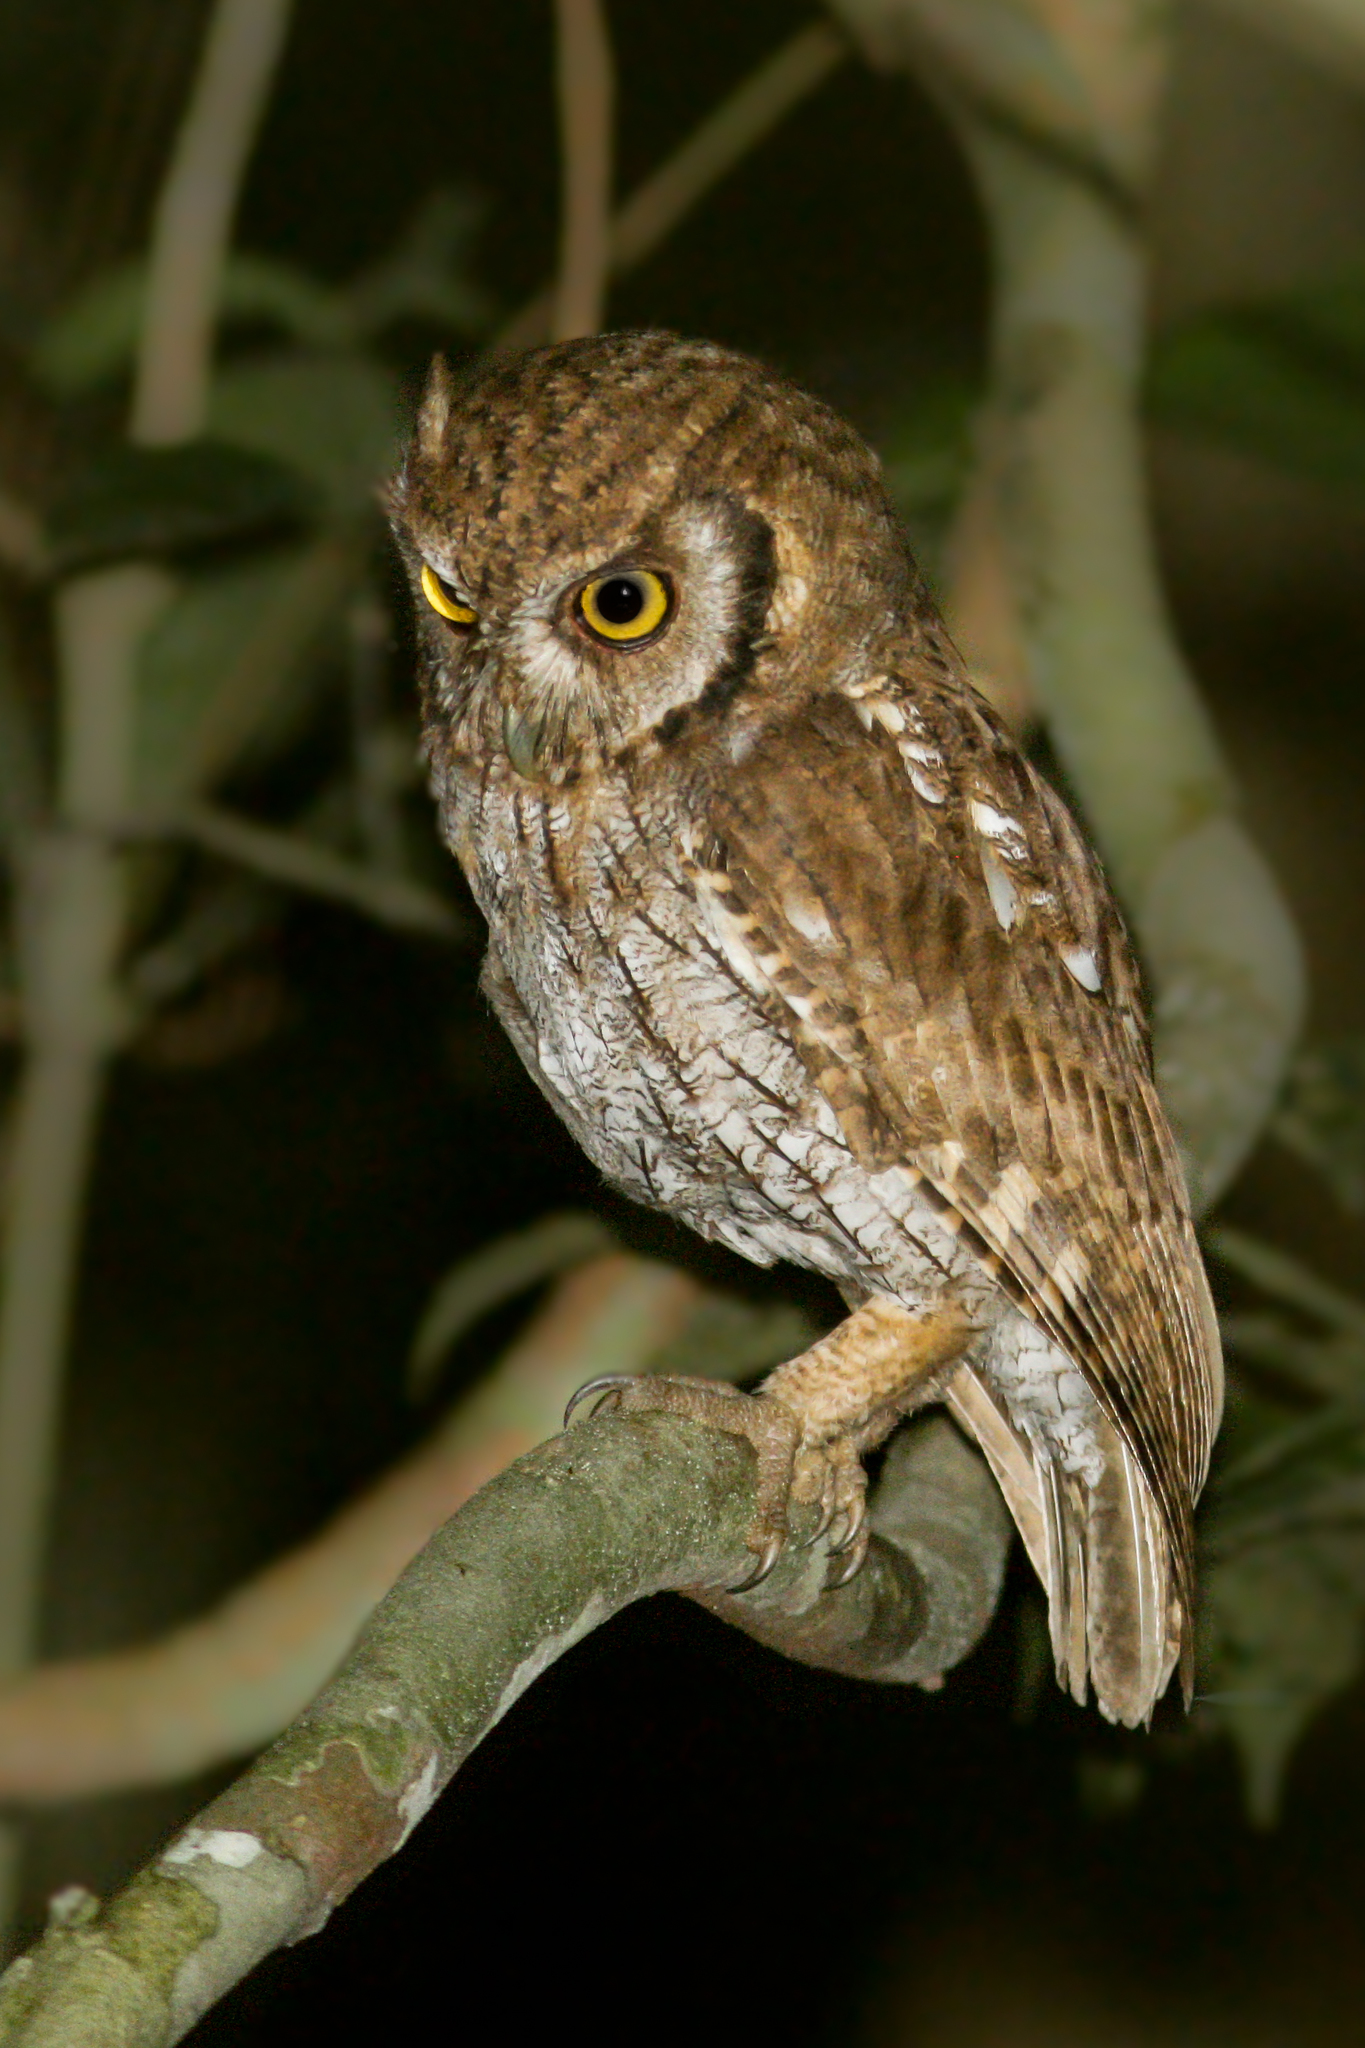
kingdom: Animalia
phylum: Chordata
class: Aves
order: Strigiformes
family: Strigidae
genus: Megascops
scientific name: Megascops choliba
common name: Tropical screech-owl
